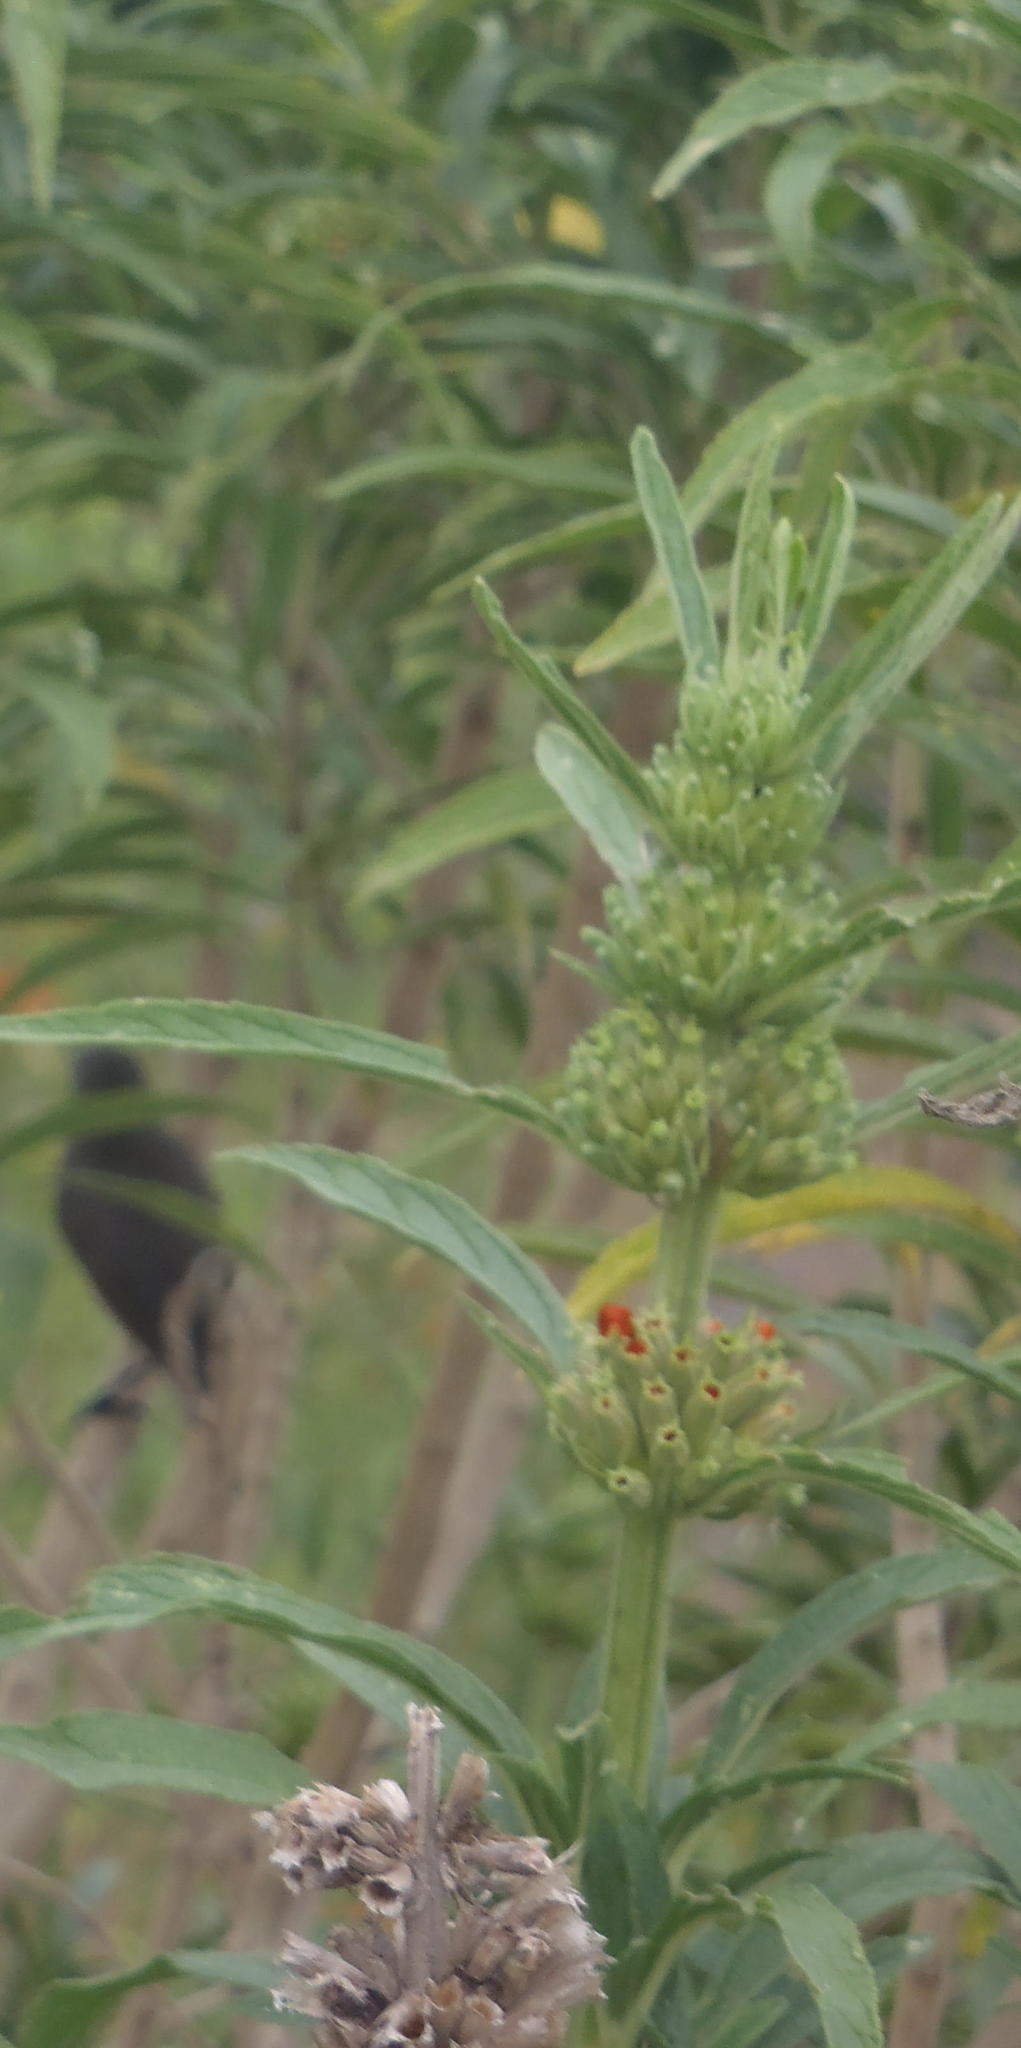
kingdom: Plantae
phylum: Tracheophyta
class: Magnoliopsida
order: Lamiales
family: Lamiaceae
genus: Leonotis
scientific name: Leonotis leonurus
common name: Lion's ear
